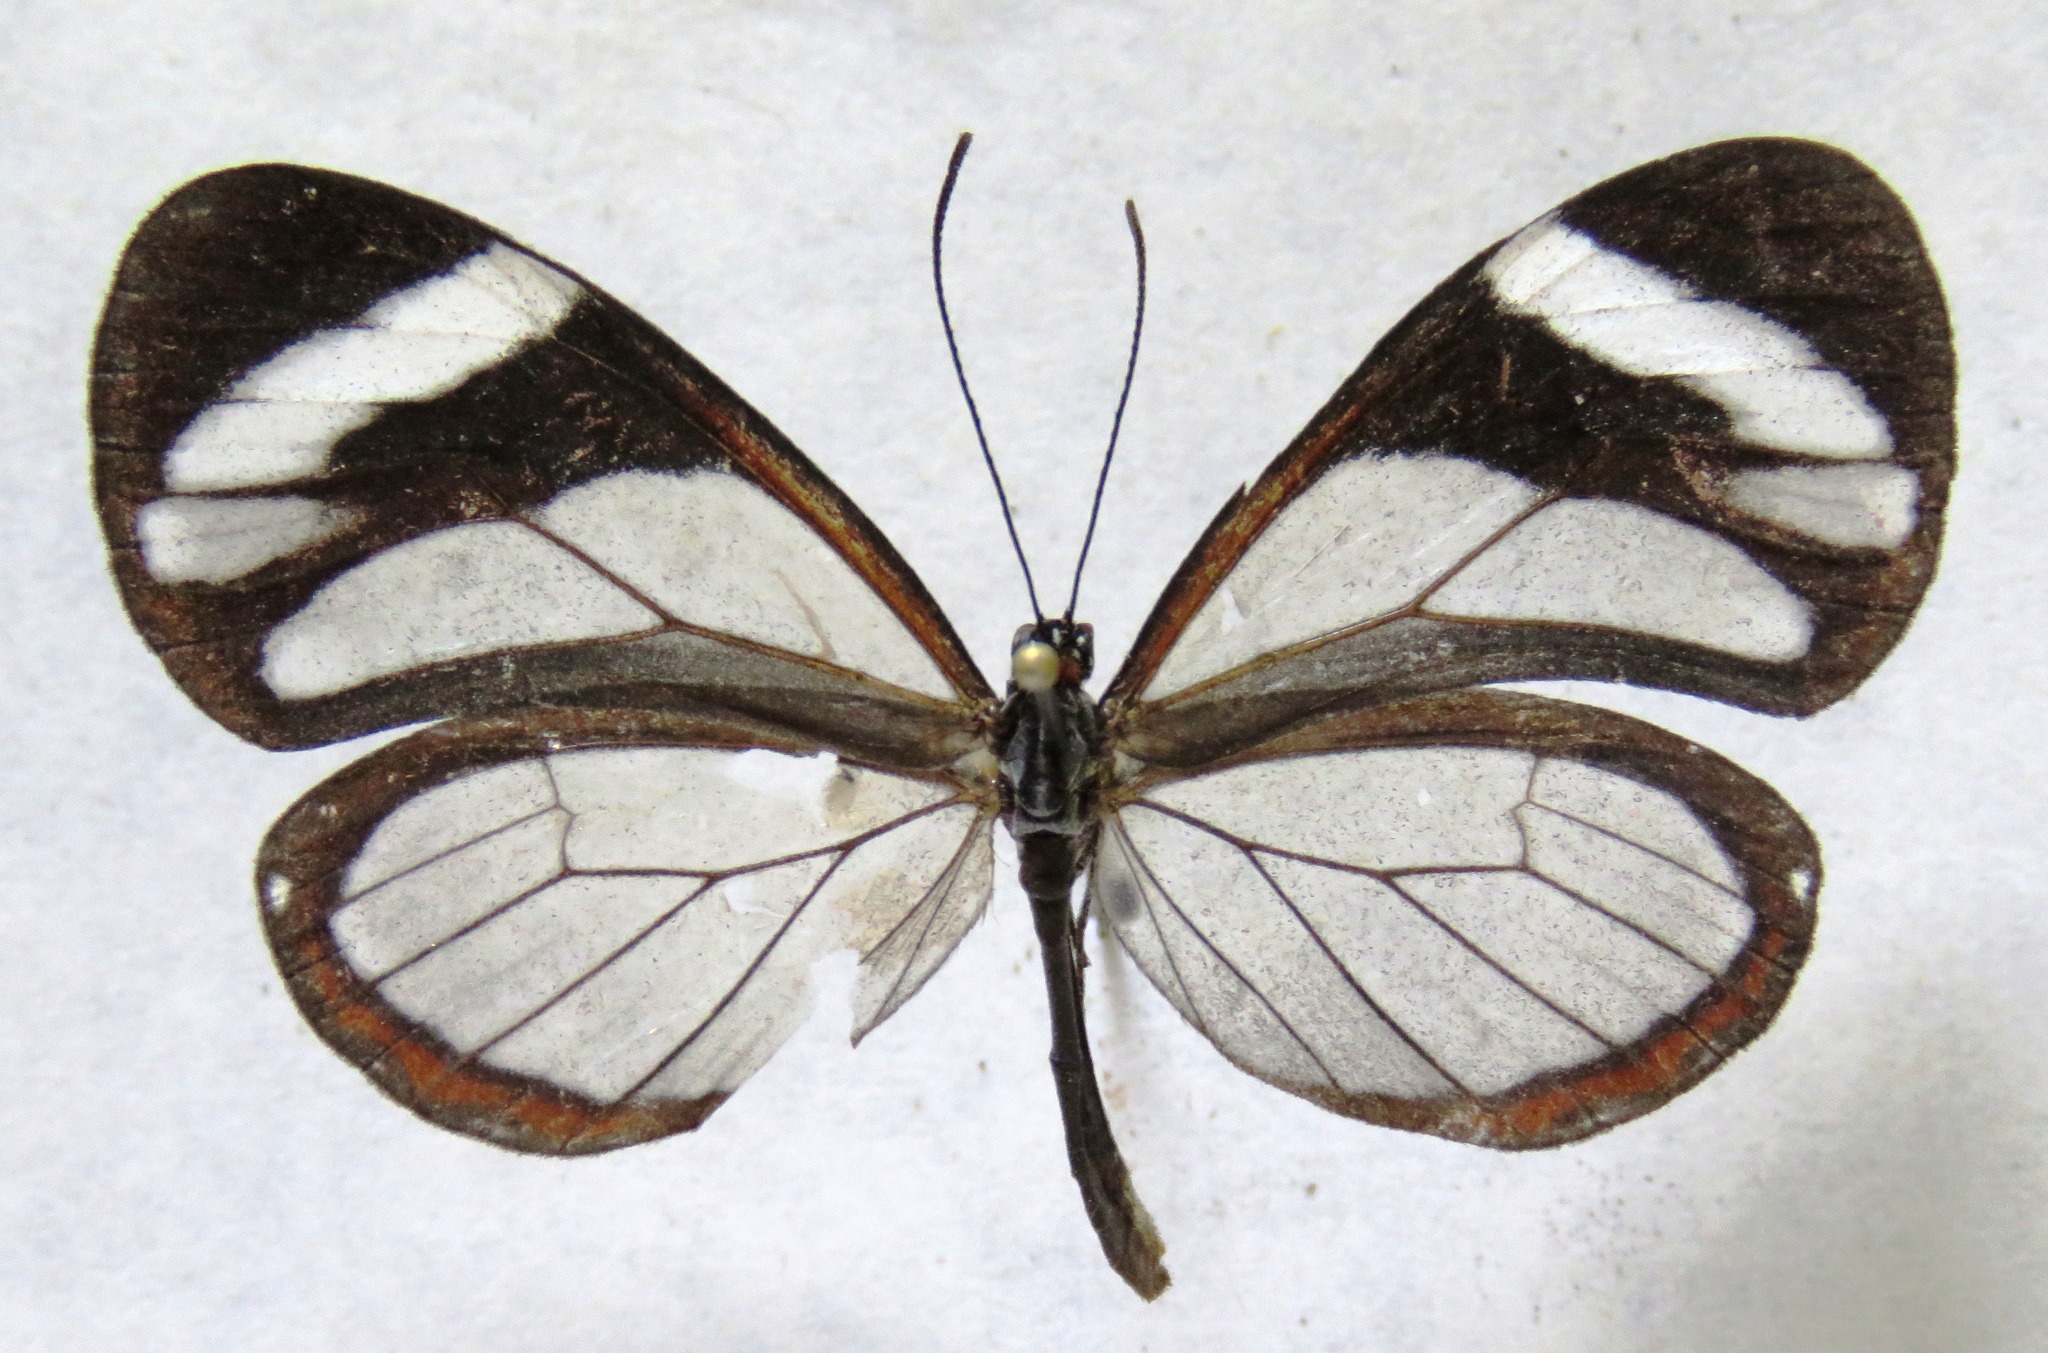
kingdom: Animalia
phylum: Arthropoda
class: Insecta
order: Lepidoptera
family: Nymphalidae
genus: Ithomia
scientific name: Ithomia patilla
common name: Patilla clearwing
